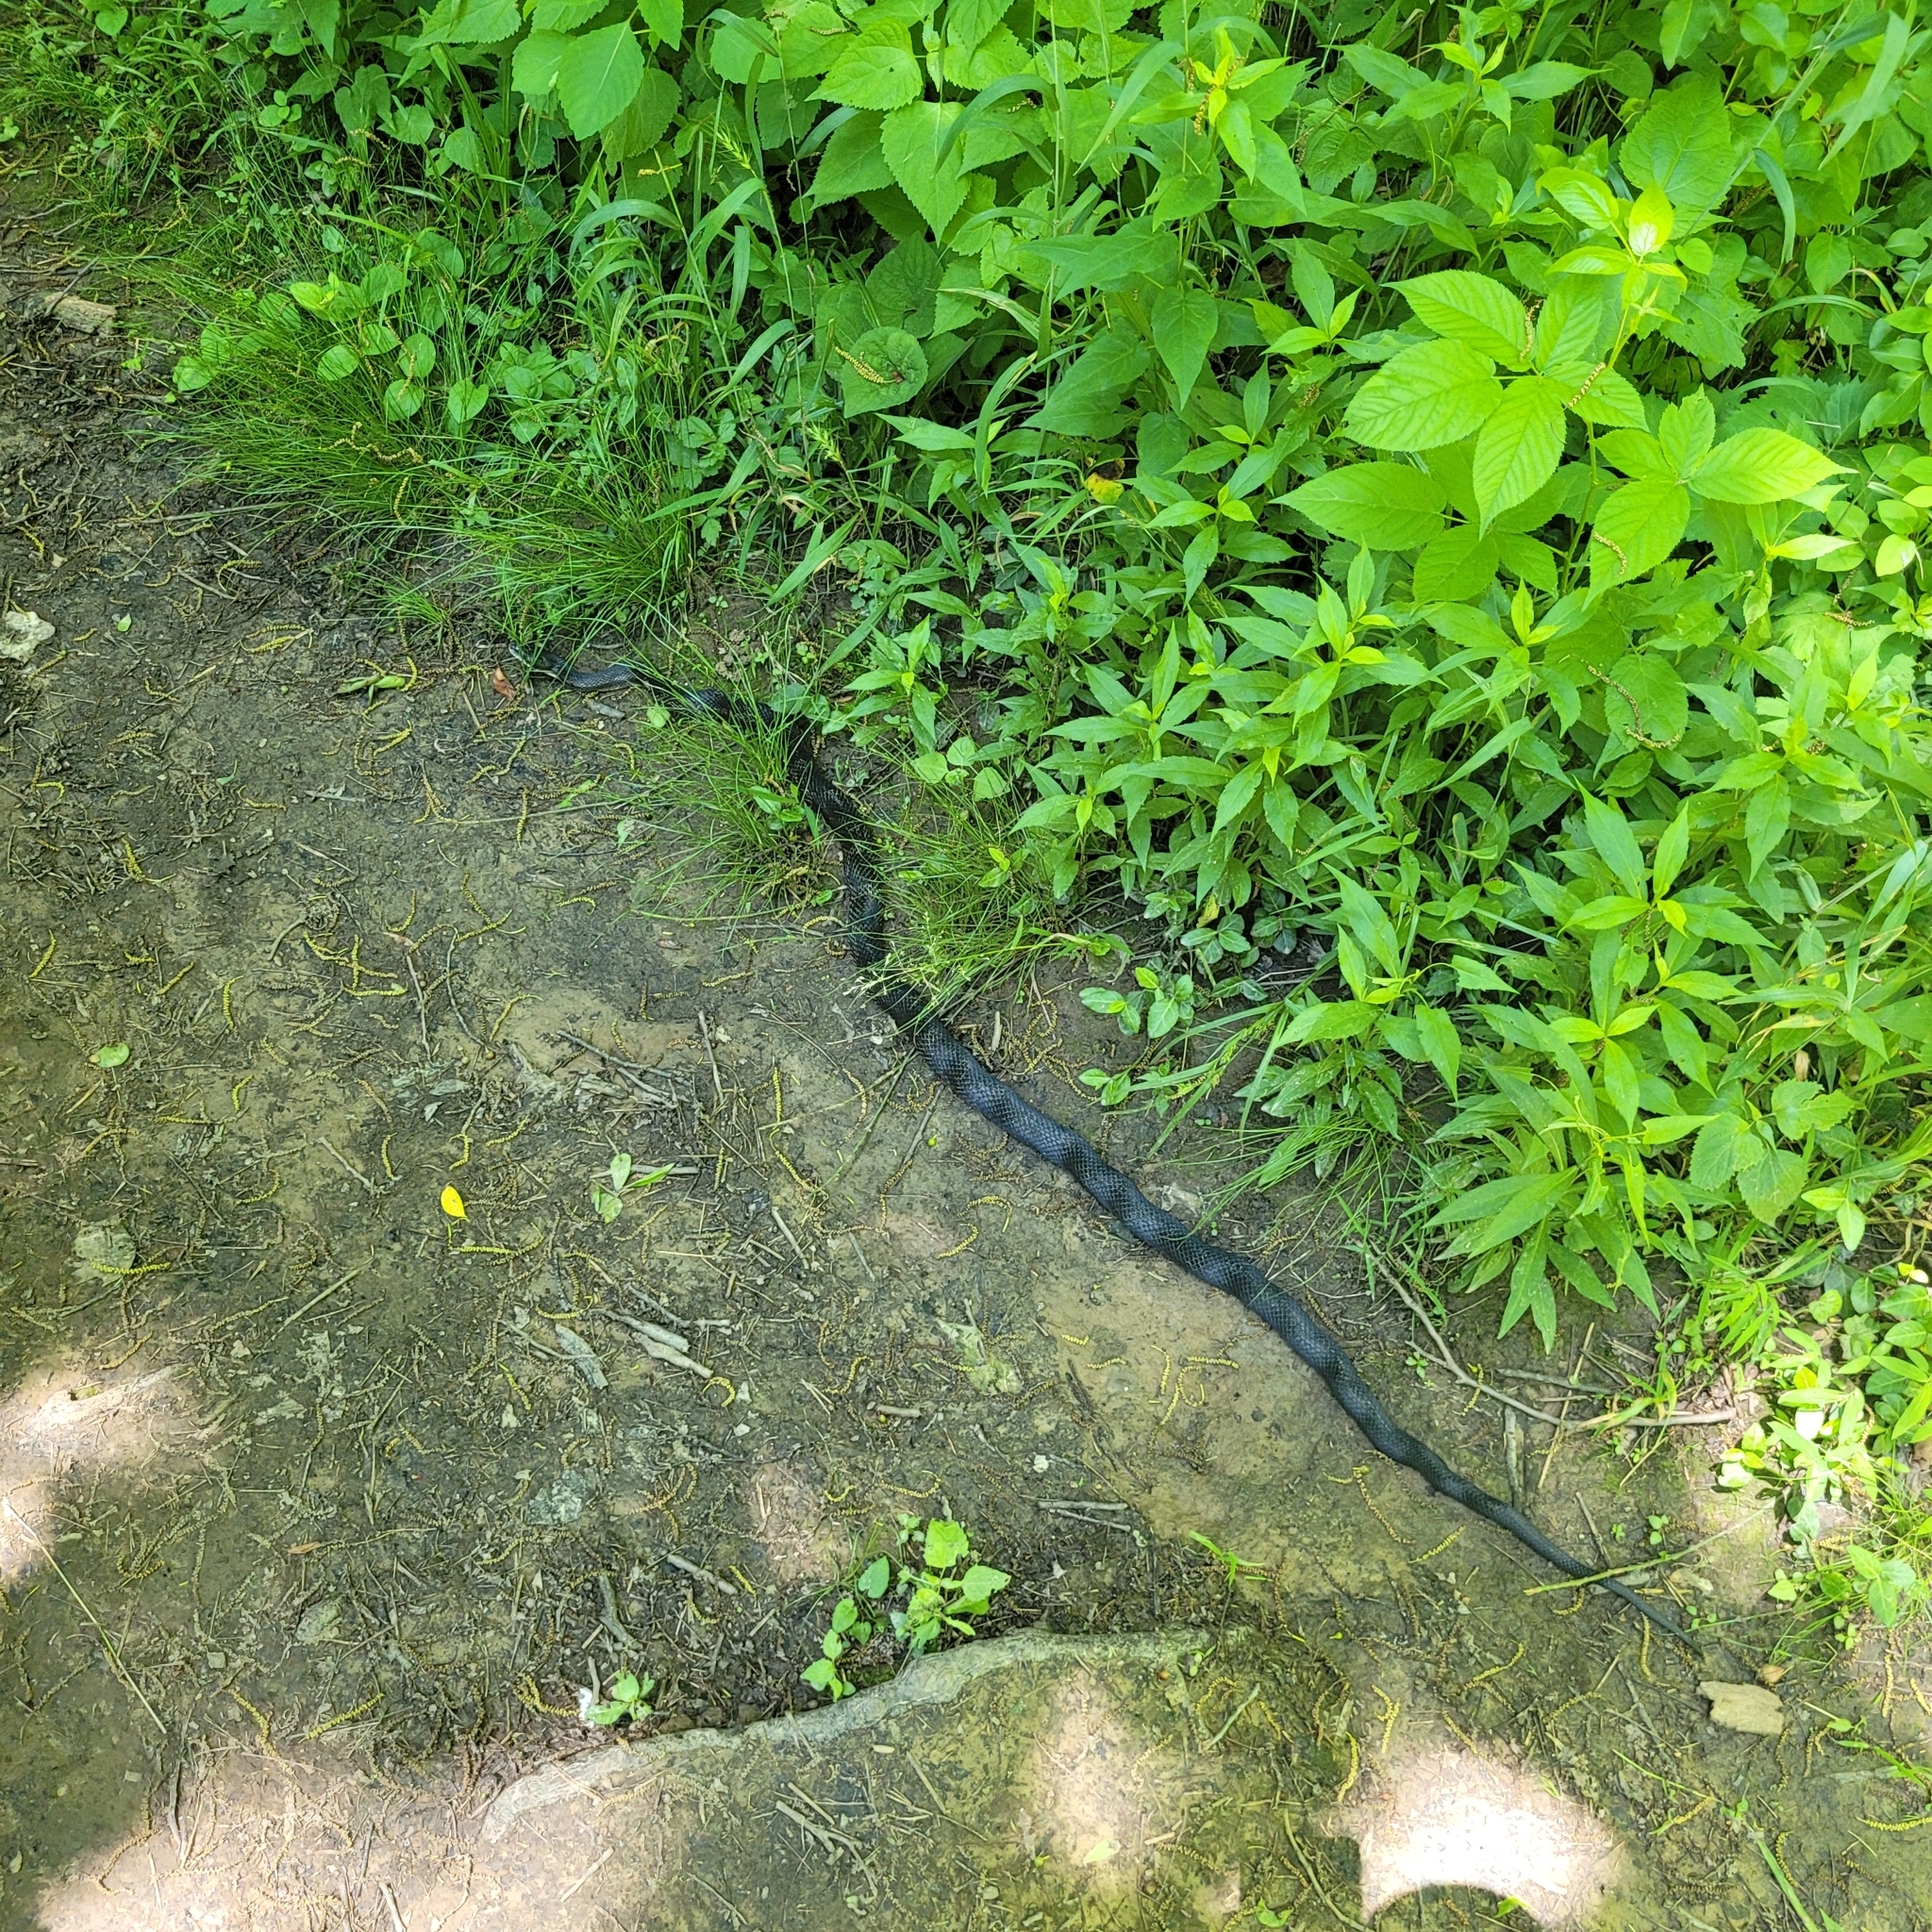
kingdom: Animalia
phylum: Chordata
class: Squamata
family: Colubridae
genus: Pantherophis
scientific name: Pantherophis spiloides
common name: Gray rat snake
